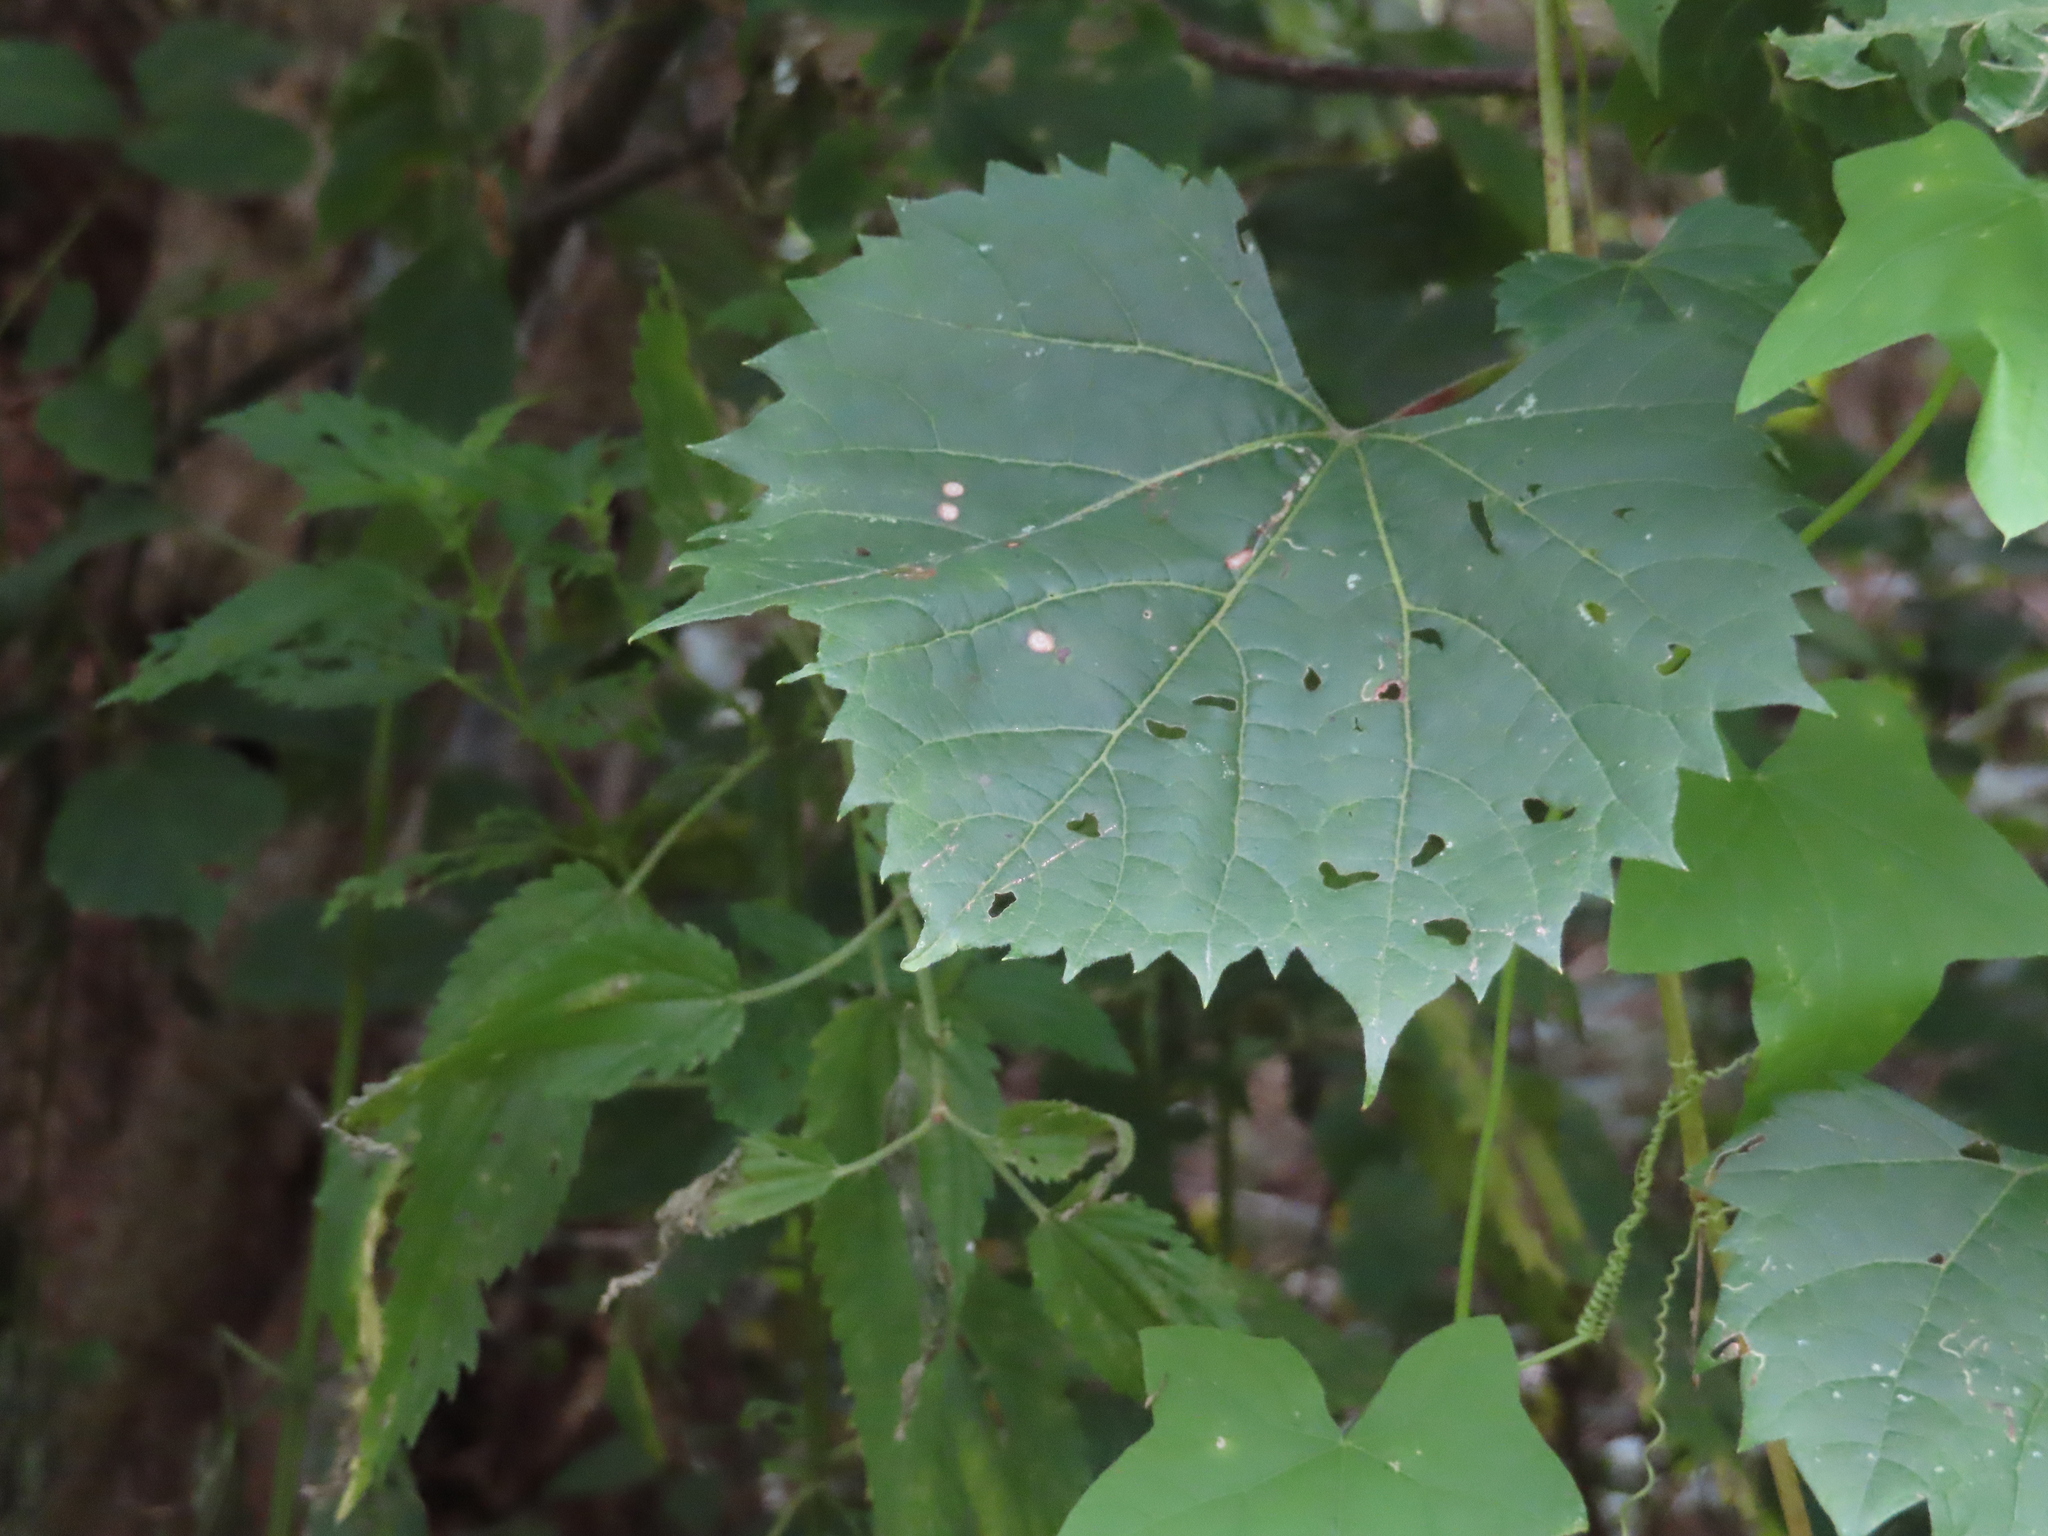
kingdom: Plantae
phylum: Tracheophyta
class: Magnoliopsida
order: Vitales
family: Vitaceae
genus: Vitis
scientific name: Vitis riparia
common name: Frost grape
